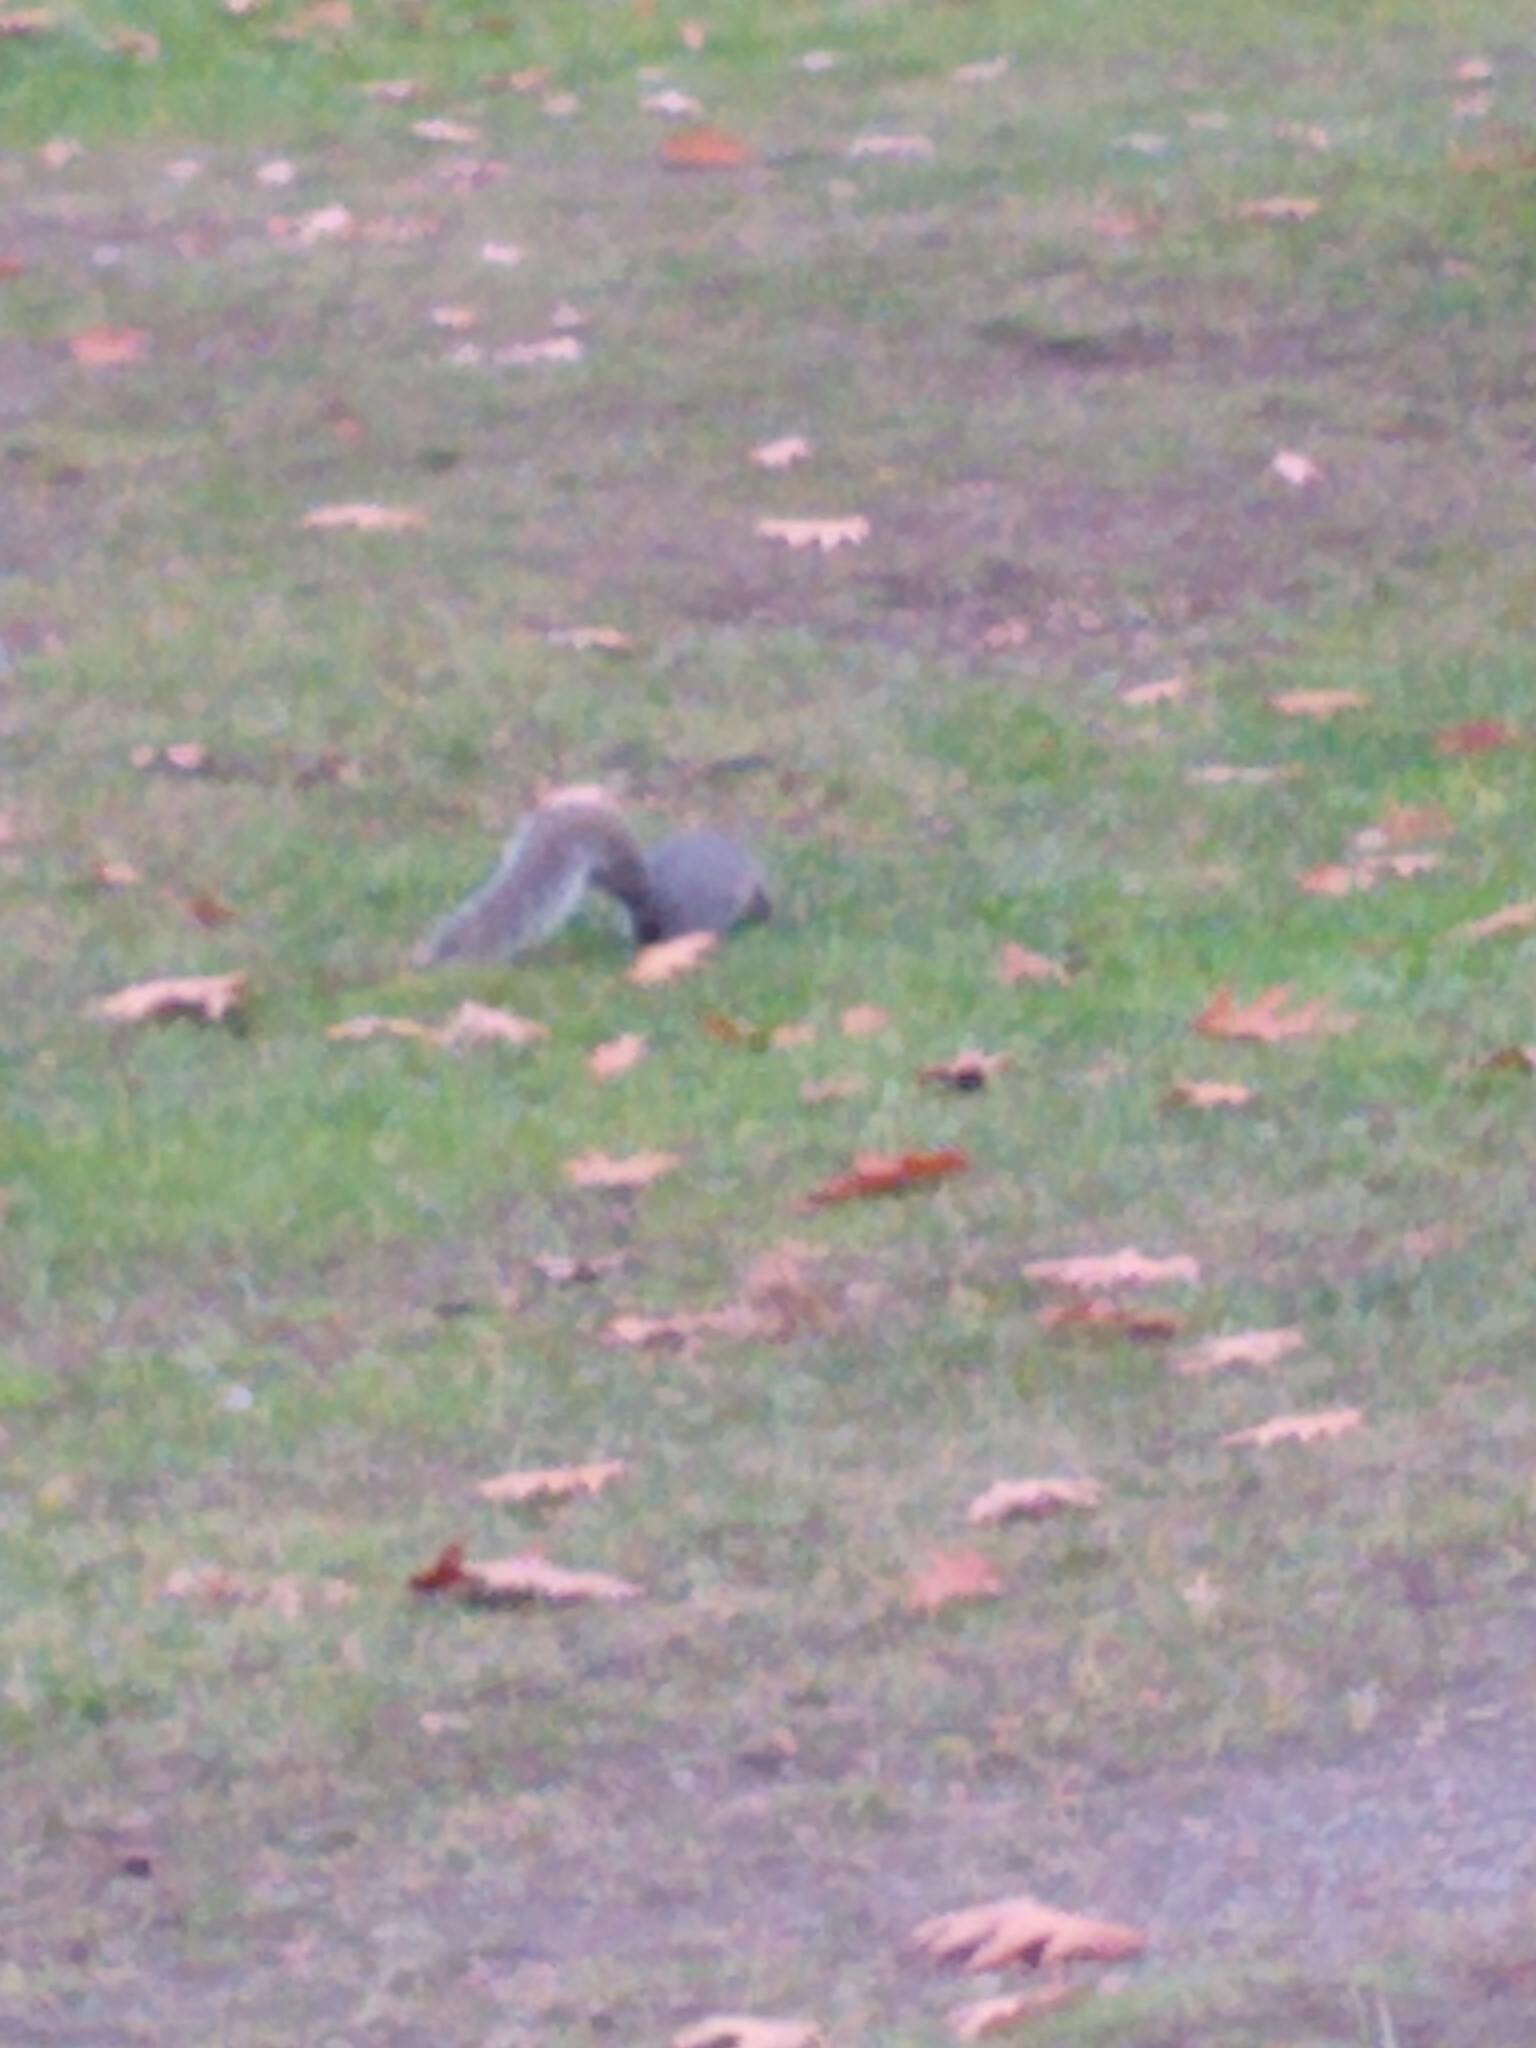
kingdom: Animalia
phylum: Chordata
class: Mammalia
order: Rodentia
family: Sciuridae
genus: Sciurus
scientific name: Sciurus carolinensis
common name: Eastern gray squirrel
